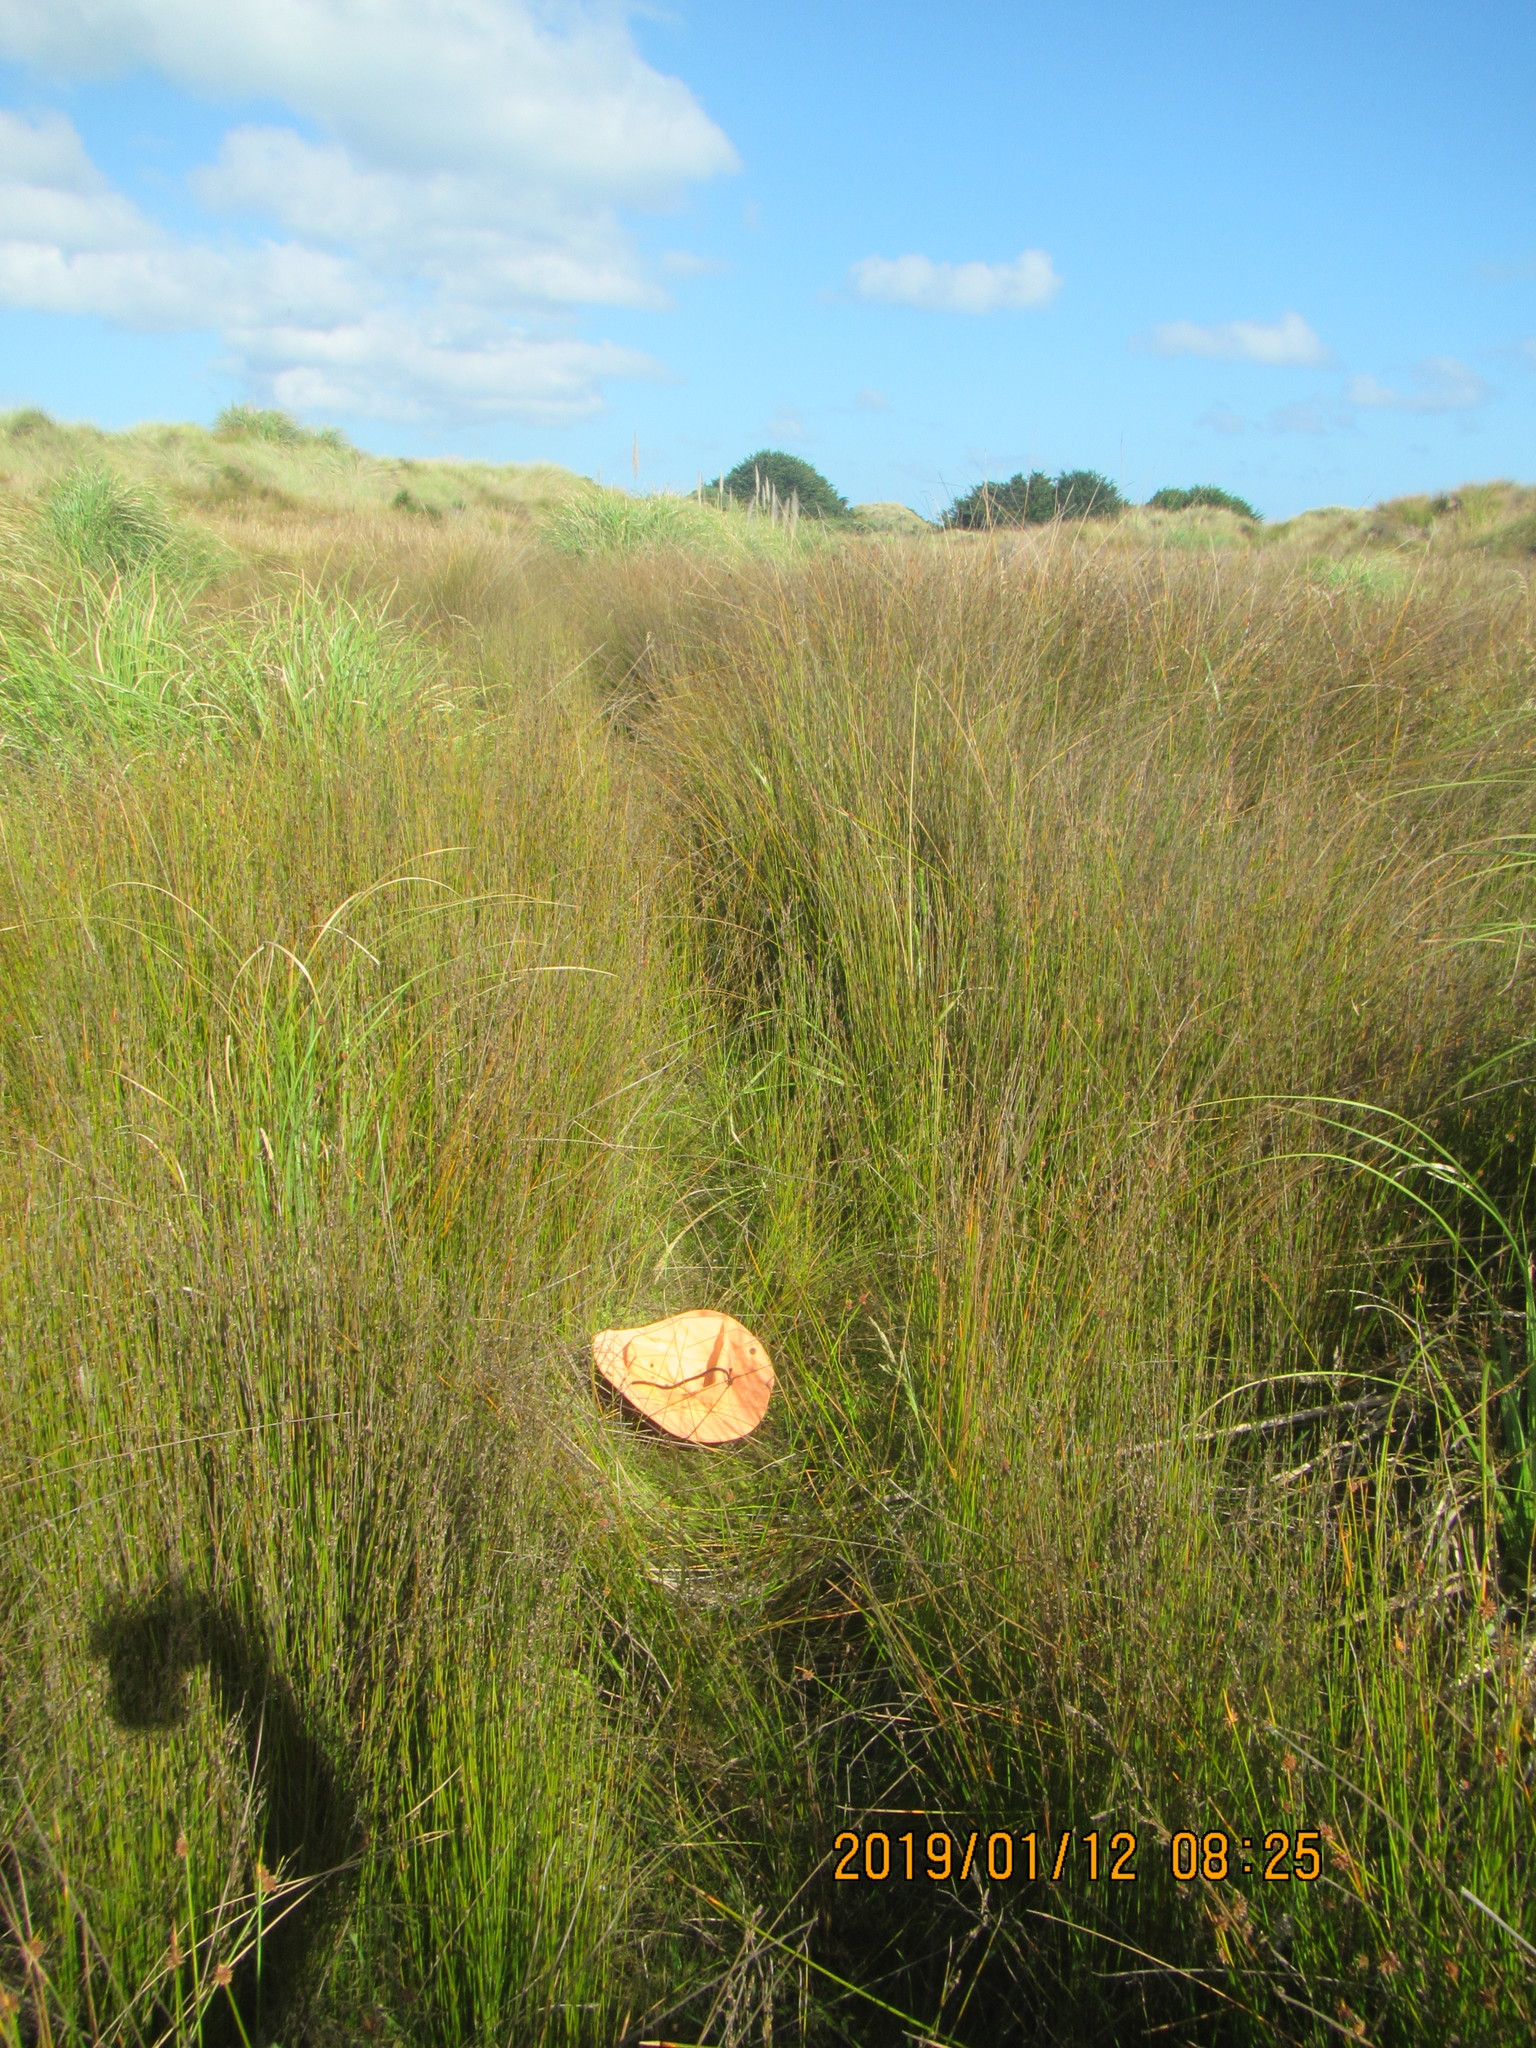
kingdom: Plantae
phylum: Tracheophyta
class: Magnoliopsida
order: Lamiales
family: Mazaceae
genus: Mazus
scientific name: Mazus novaezeelandiae
